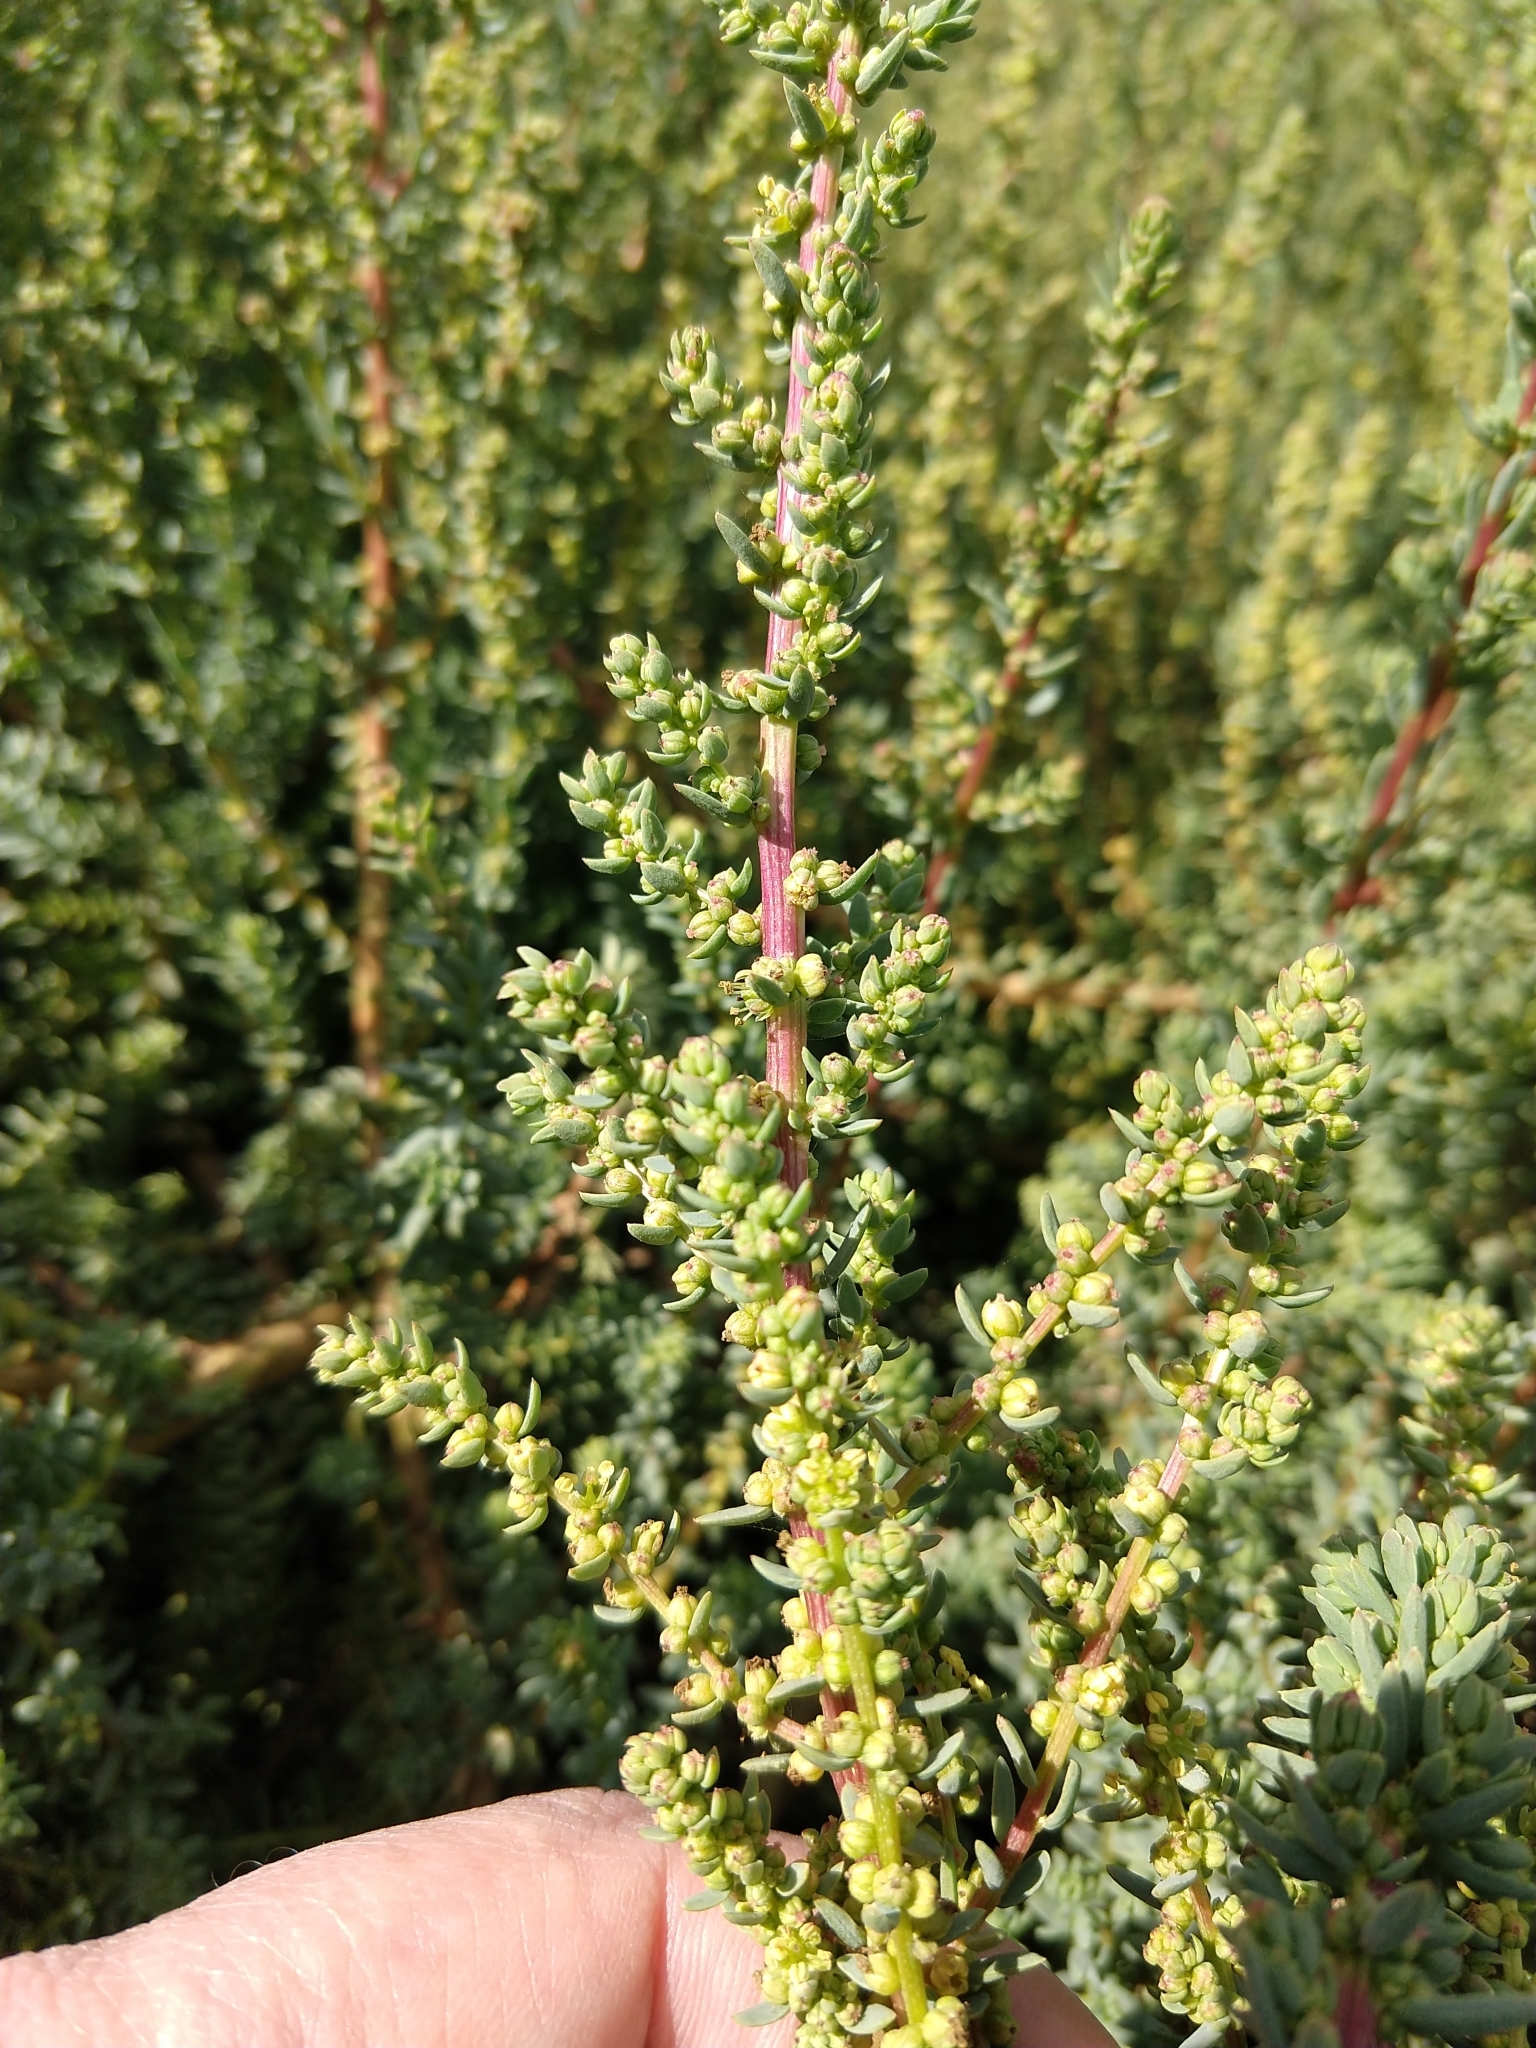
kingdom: Plantae
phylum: Tracheophyta
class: Magnoliopsida
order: Caryophyllales
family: Amaranthaceae
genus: Suaeda
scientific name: Suaeda vera
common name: Shrubby sea-blite
